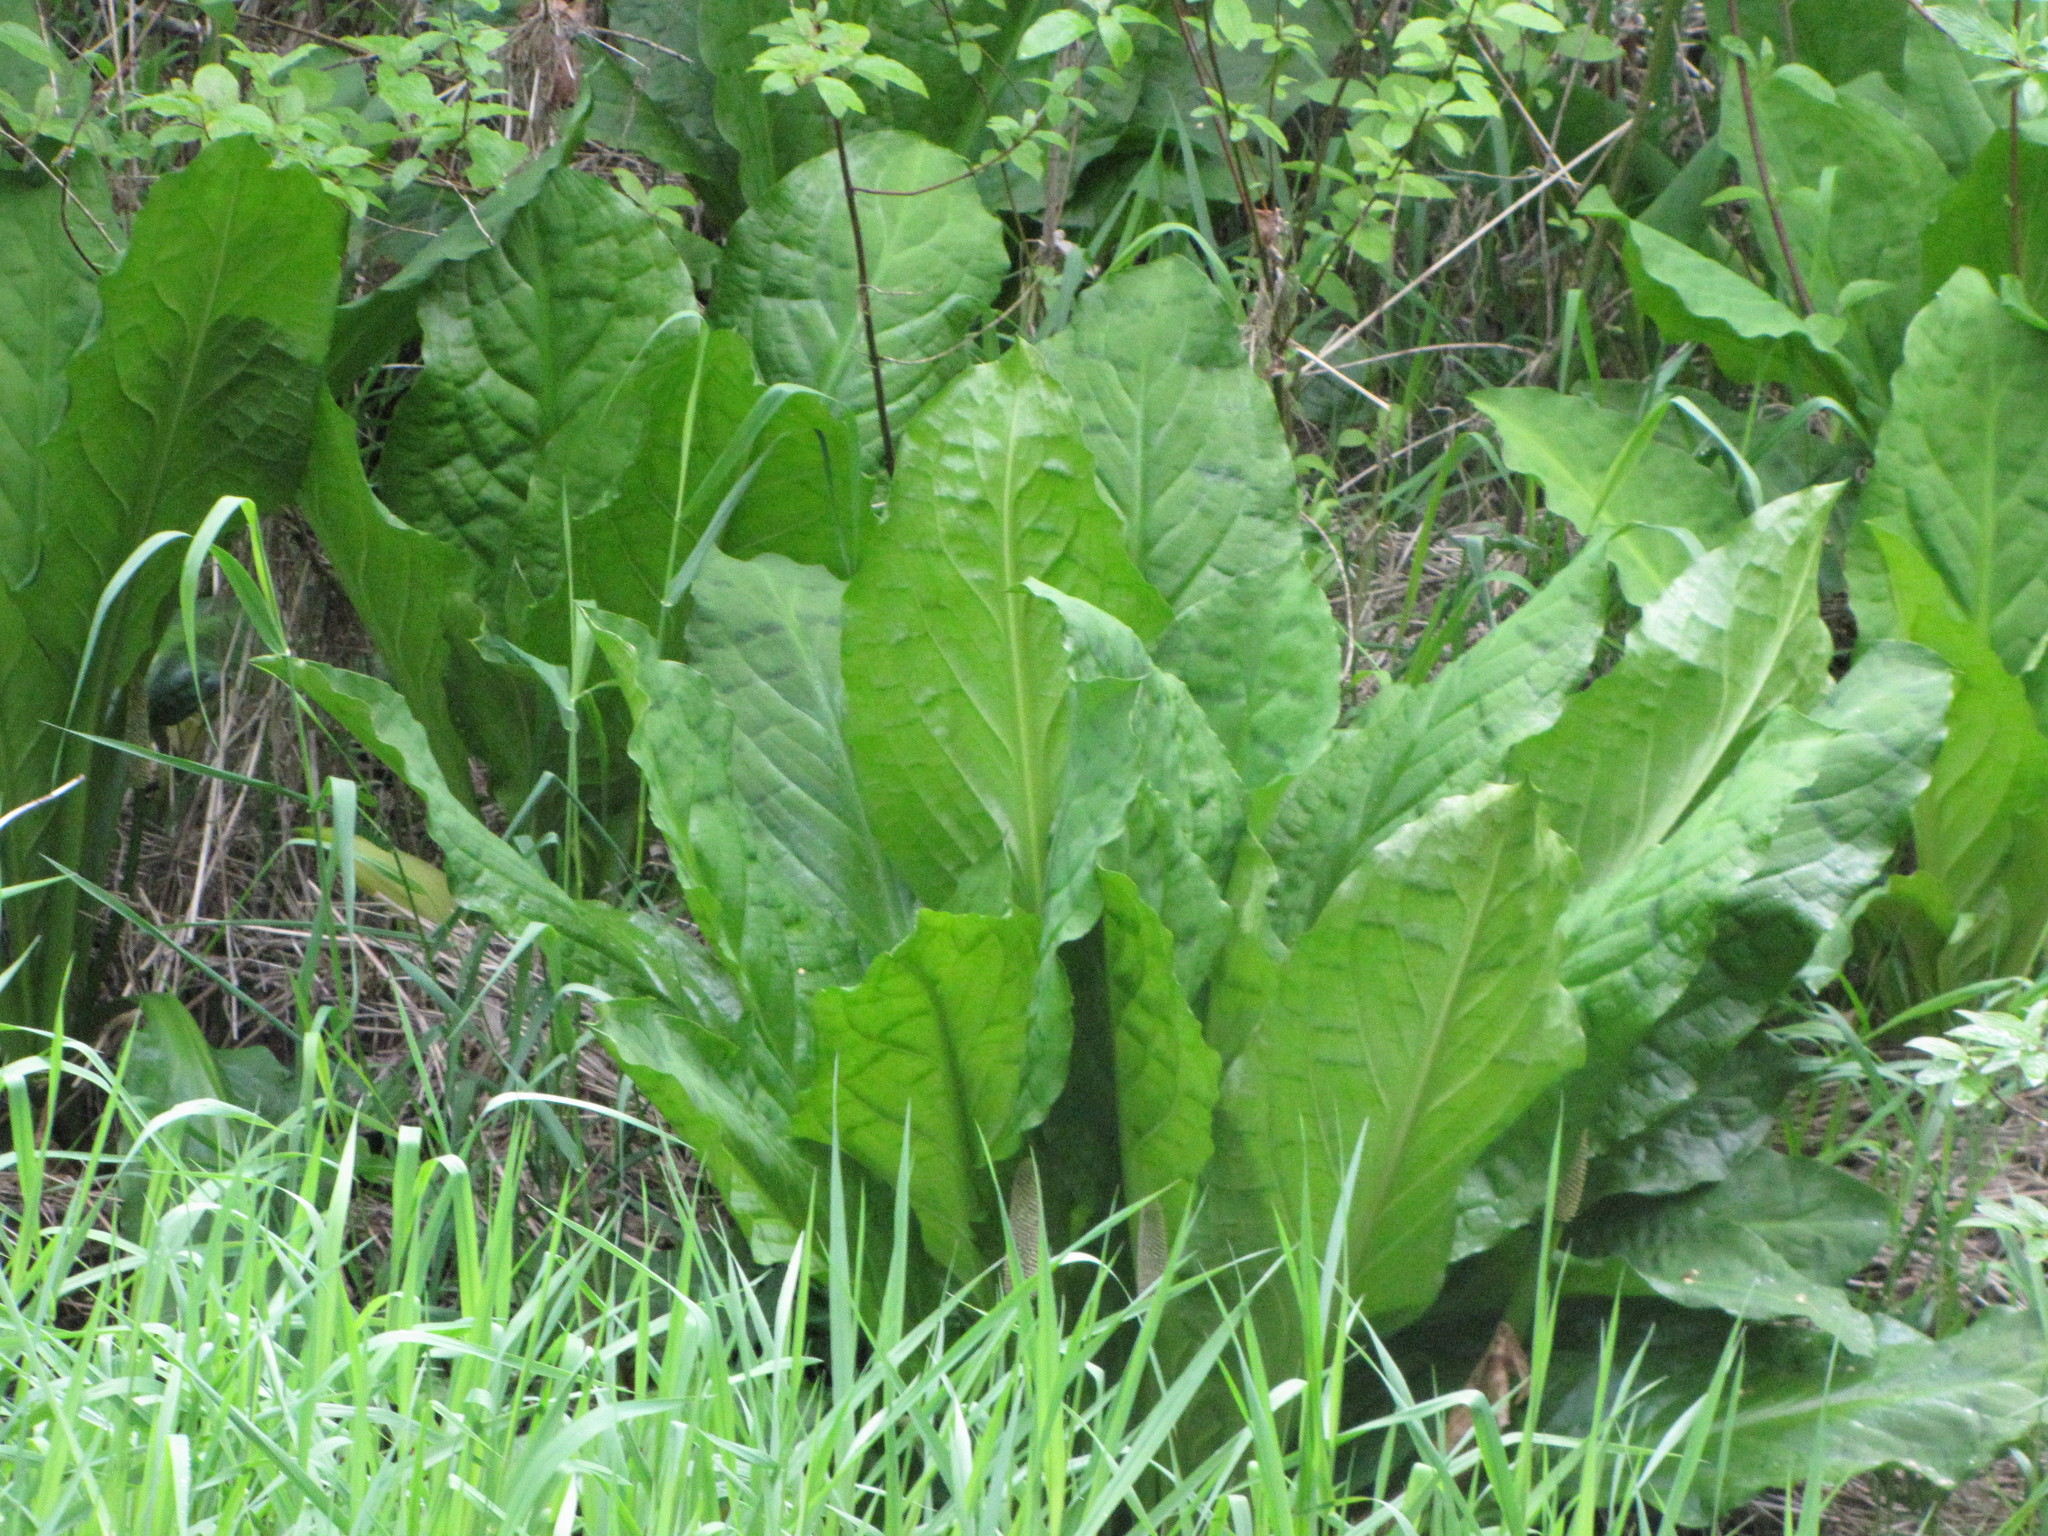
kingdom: Plantae
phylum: Tracheophyta
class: Liliopsida
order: Alismatales
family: Araceae
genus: Lysichiton
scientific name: Lysichiton americanus
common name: American skunk cabbage
